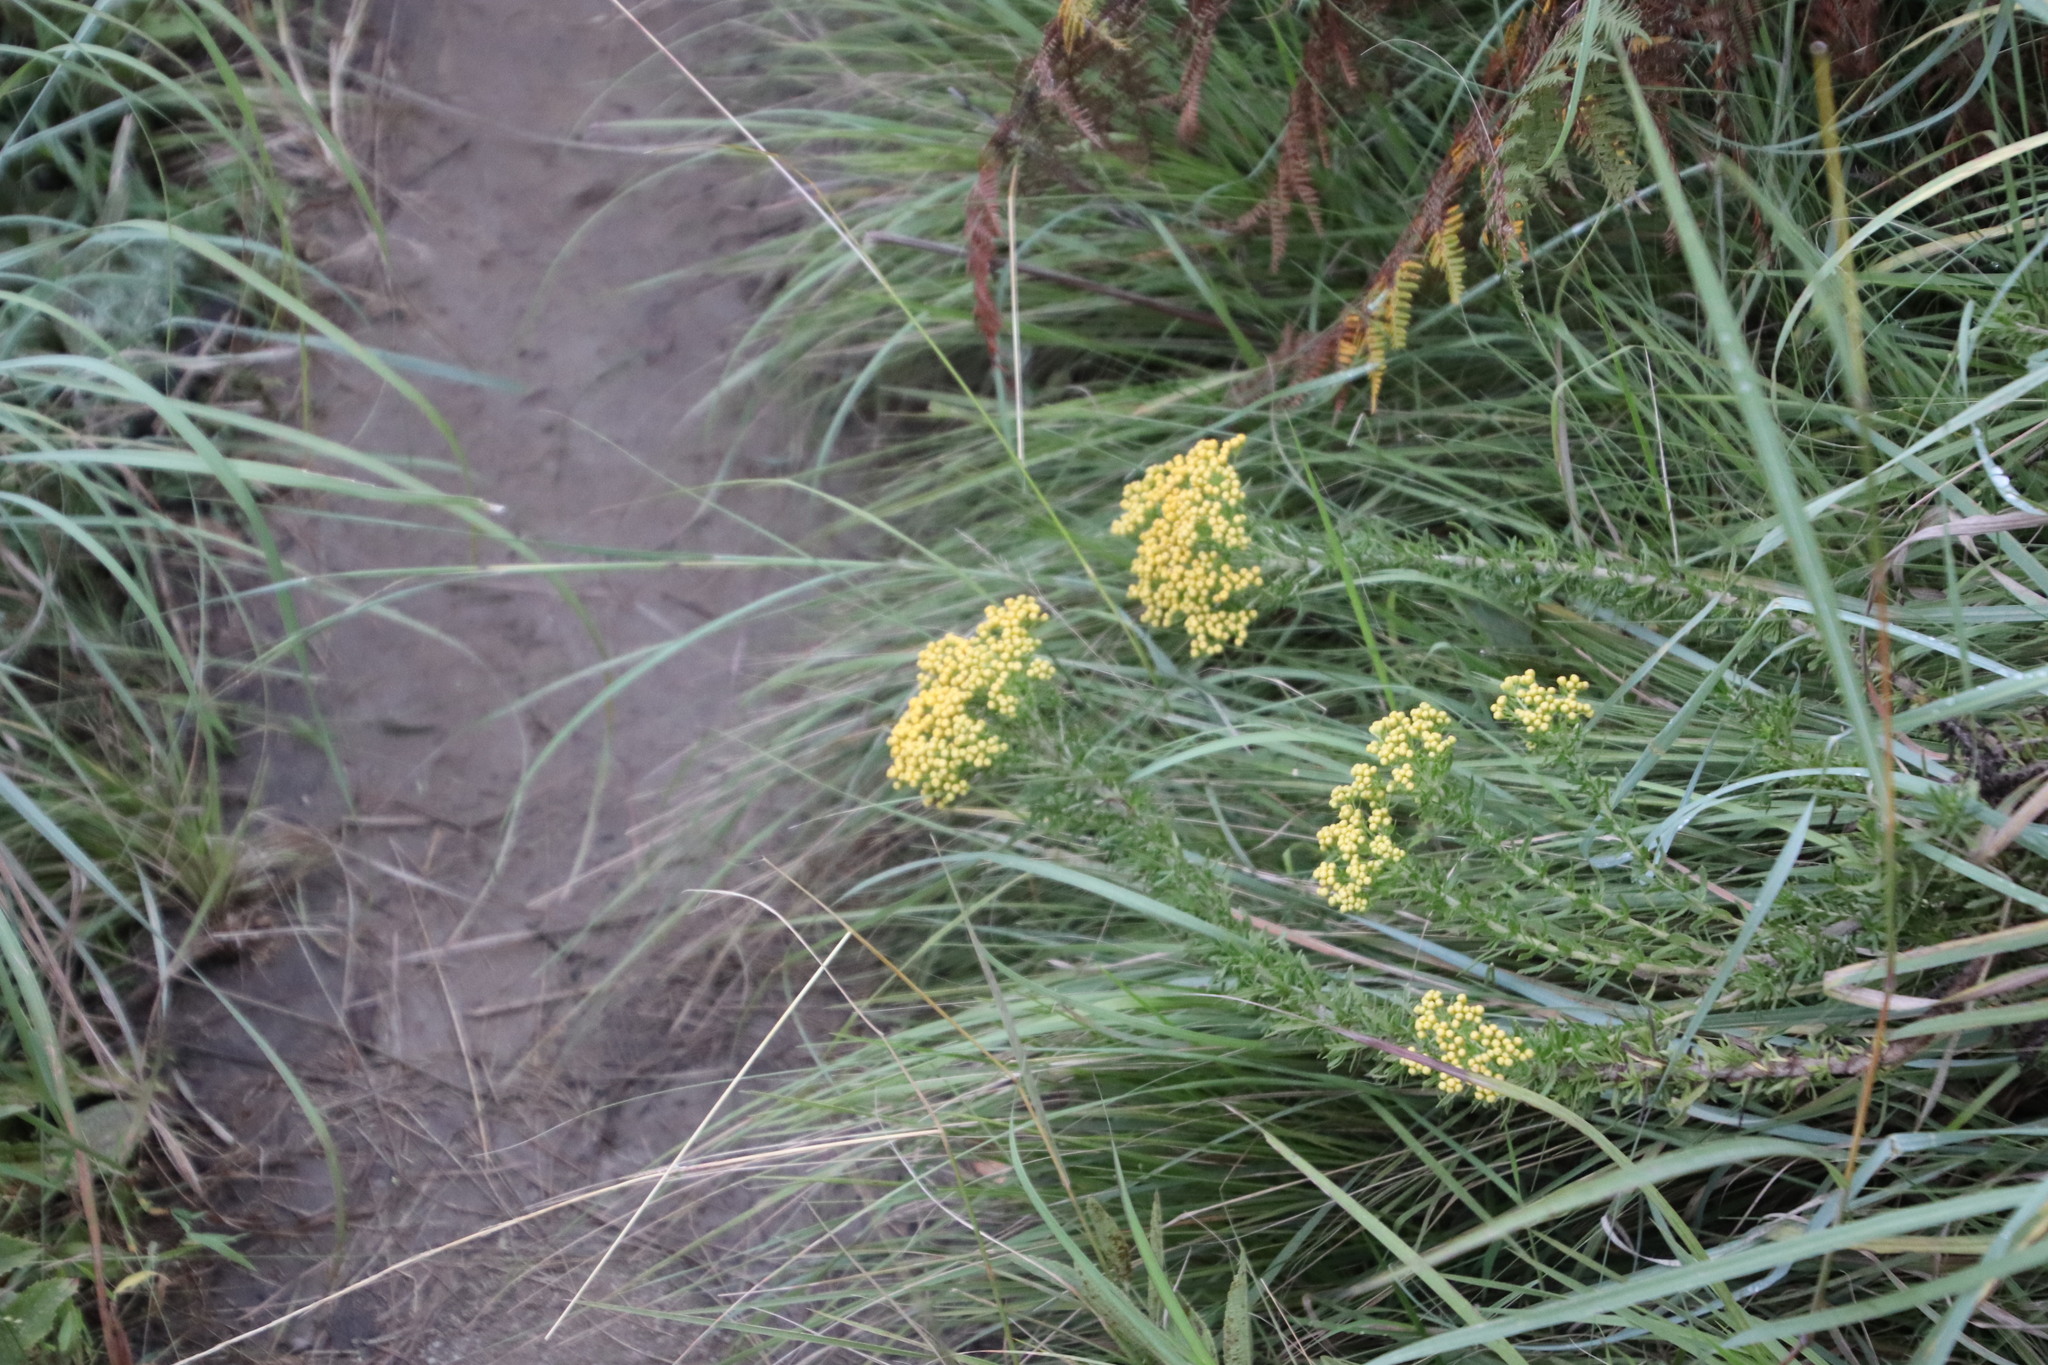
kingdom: Plantae
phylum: Tracheophyta
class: Magnoliopsida
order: Asterales
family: Asteraceae
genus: Phymaspermum
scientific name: Phymaspermum acerosum
